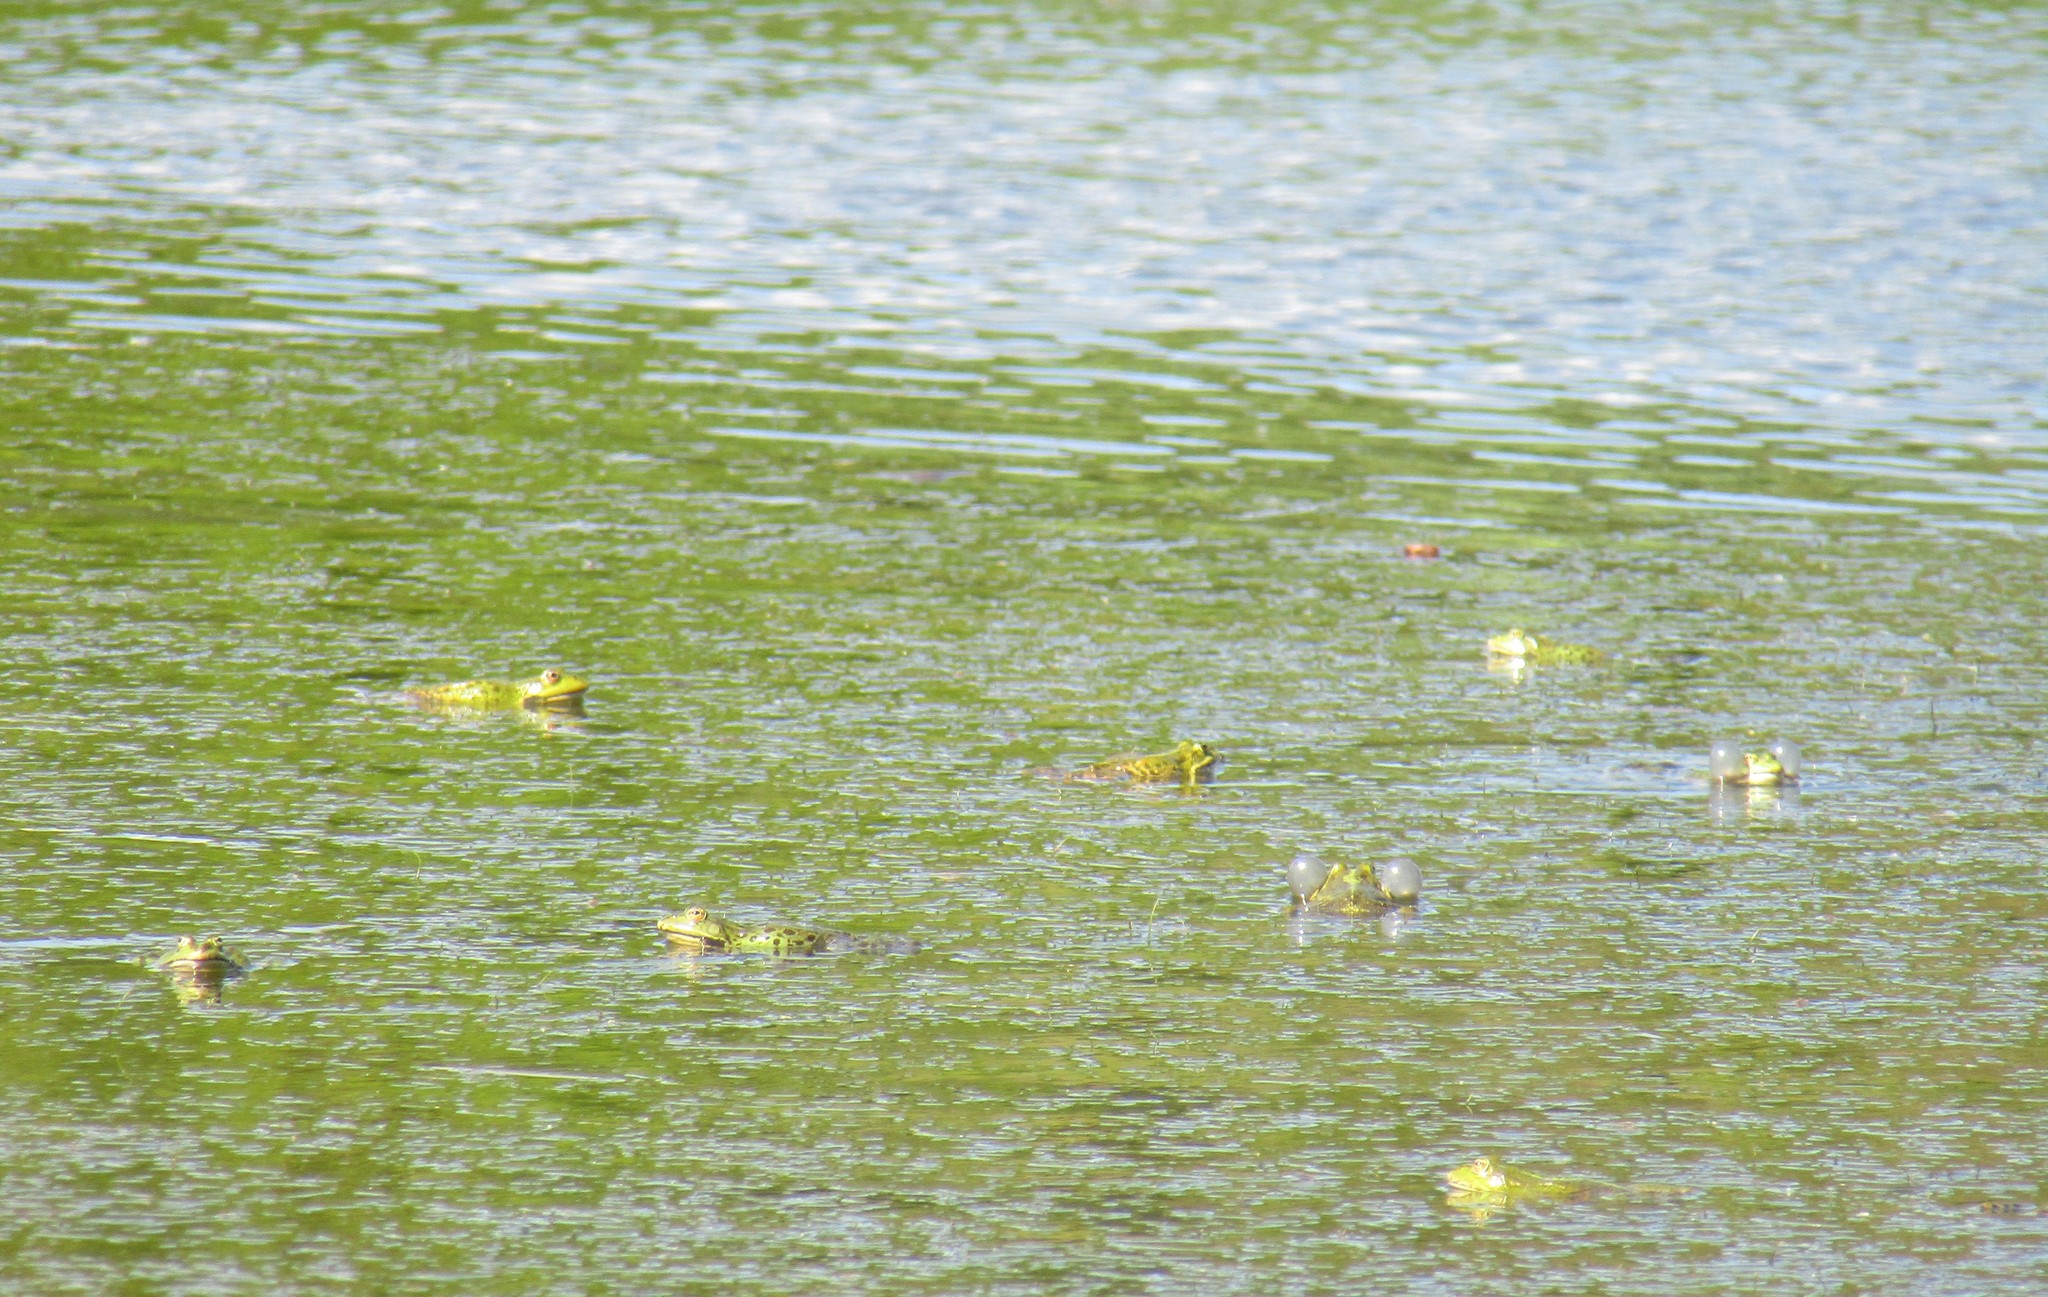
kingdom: Animalia
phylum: Chordata
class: Amphibia
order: Anura
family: Ranidae
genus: Pelophylax
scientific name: Pelophylax ridibundus
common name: Marsh frog
